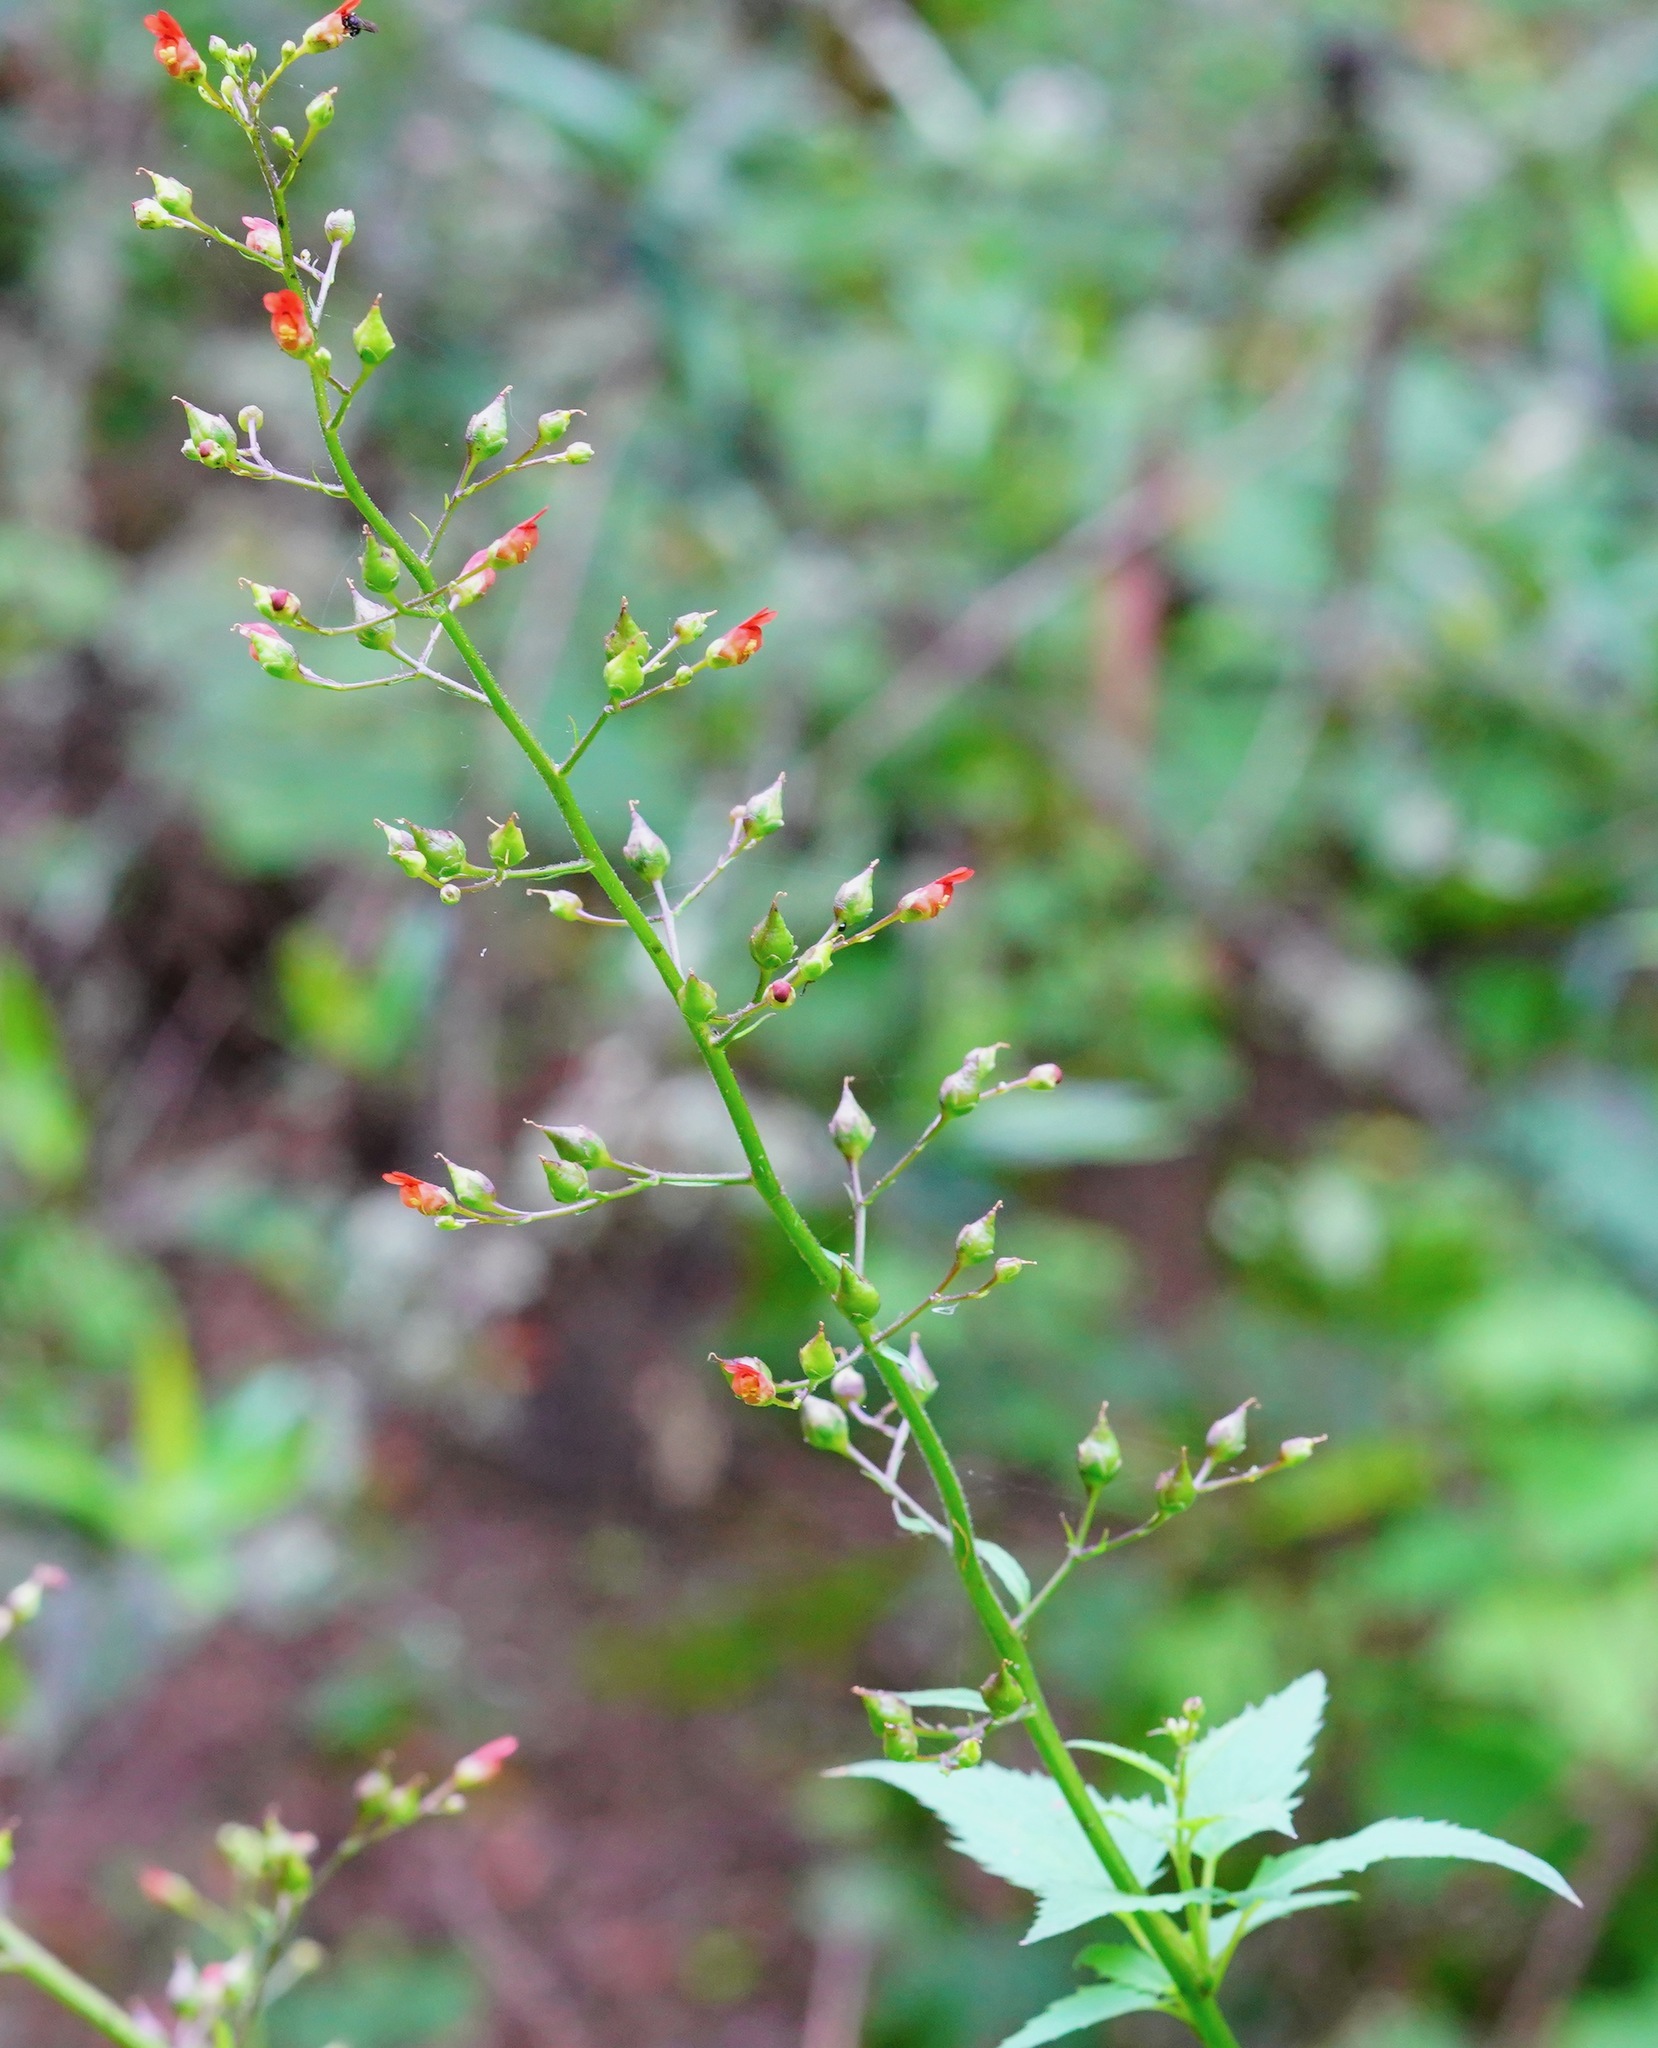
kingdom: Plantae
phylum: Tracheophyta
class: Magnoliopsida
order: Lamiales
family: Scrophulariaceae
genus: Scrophularia
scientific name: Scrophularia californica
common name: California figwort
